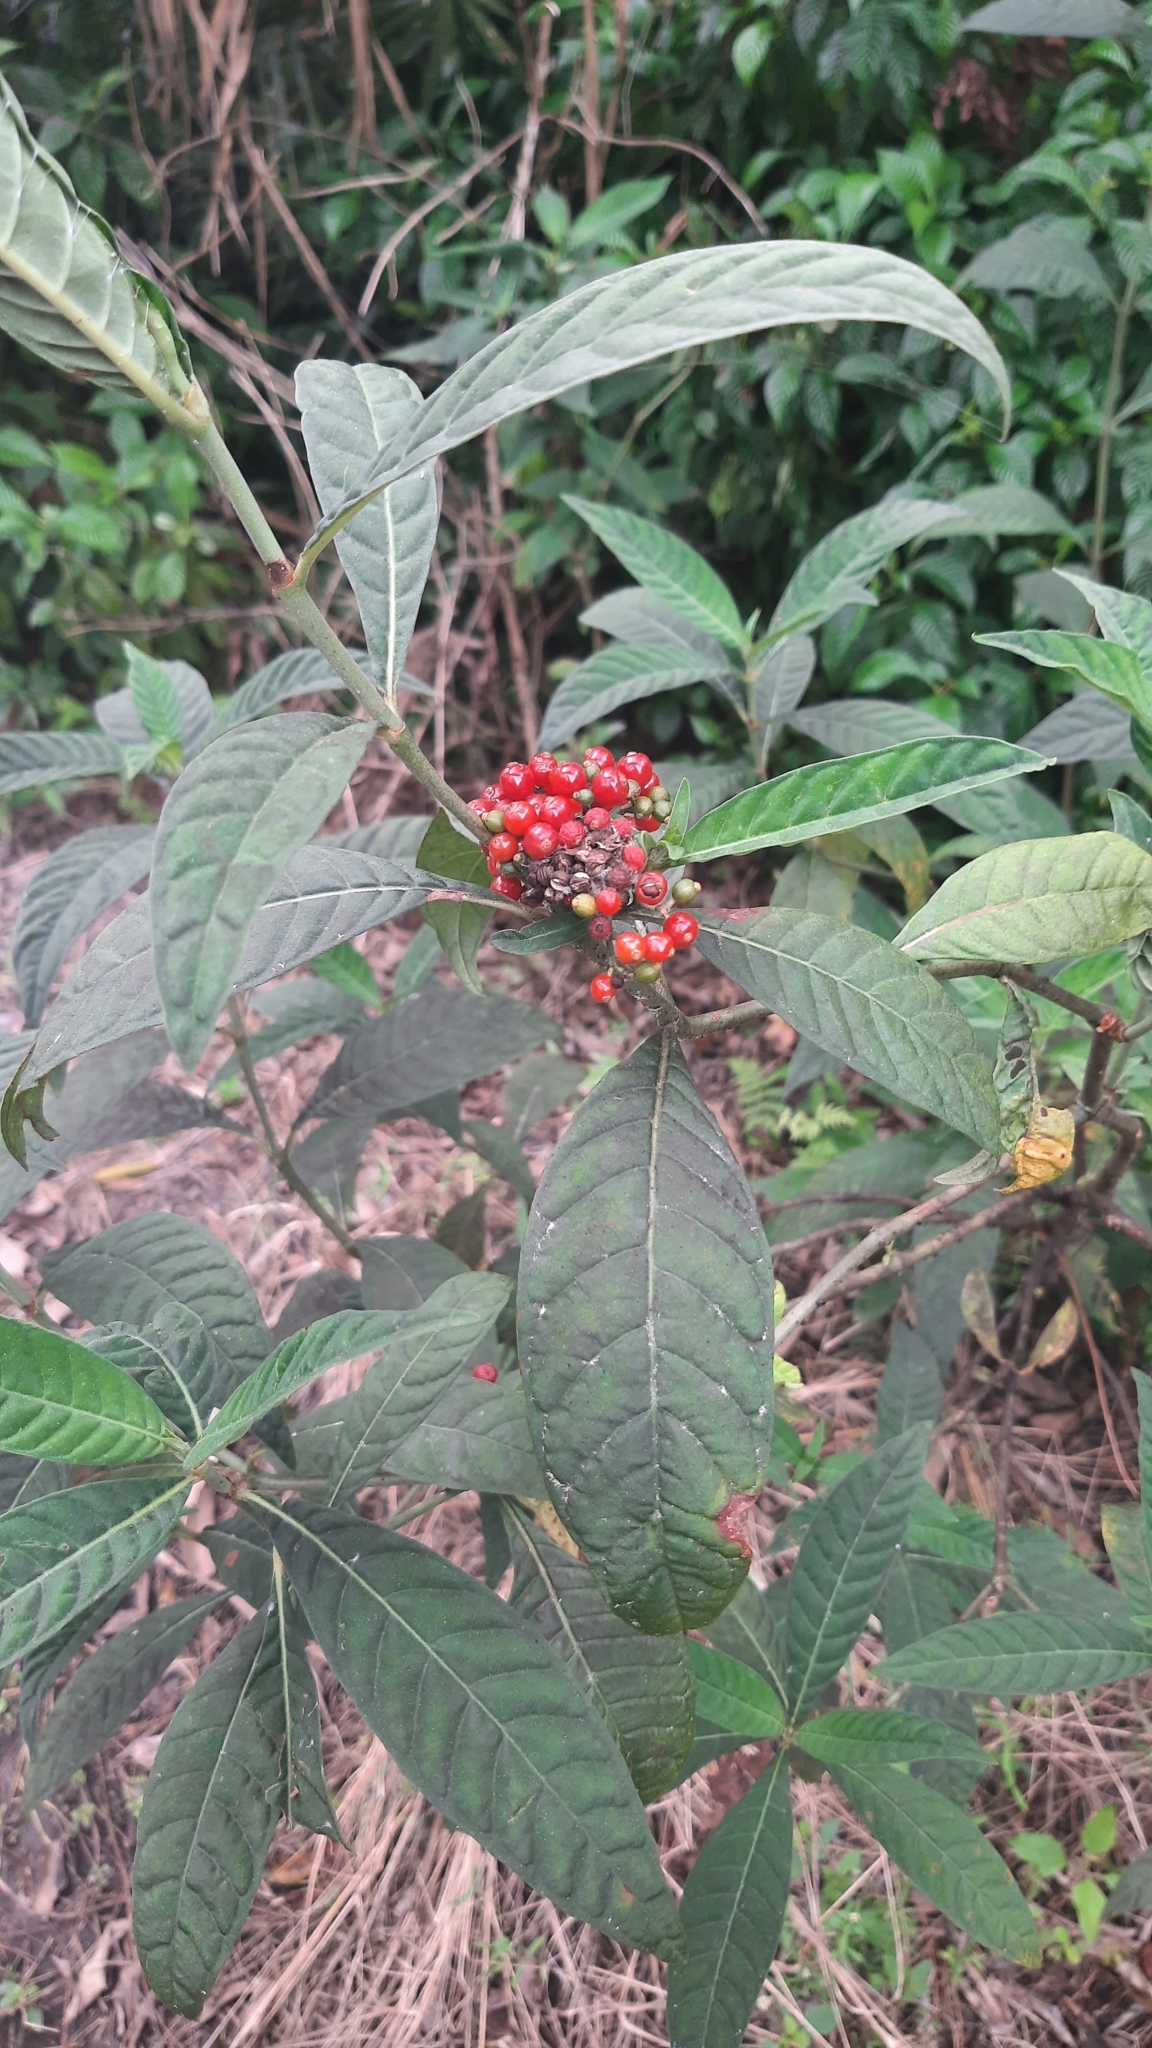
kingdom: Plantae
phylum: Tracheophyta
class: Magnoliopsida
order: Gentianales
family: Rubiaceae
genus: Psychotria
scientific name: Psychotria tenuifolia
